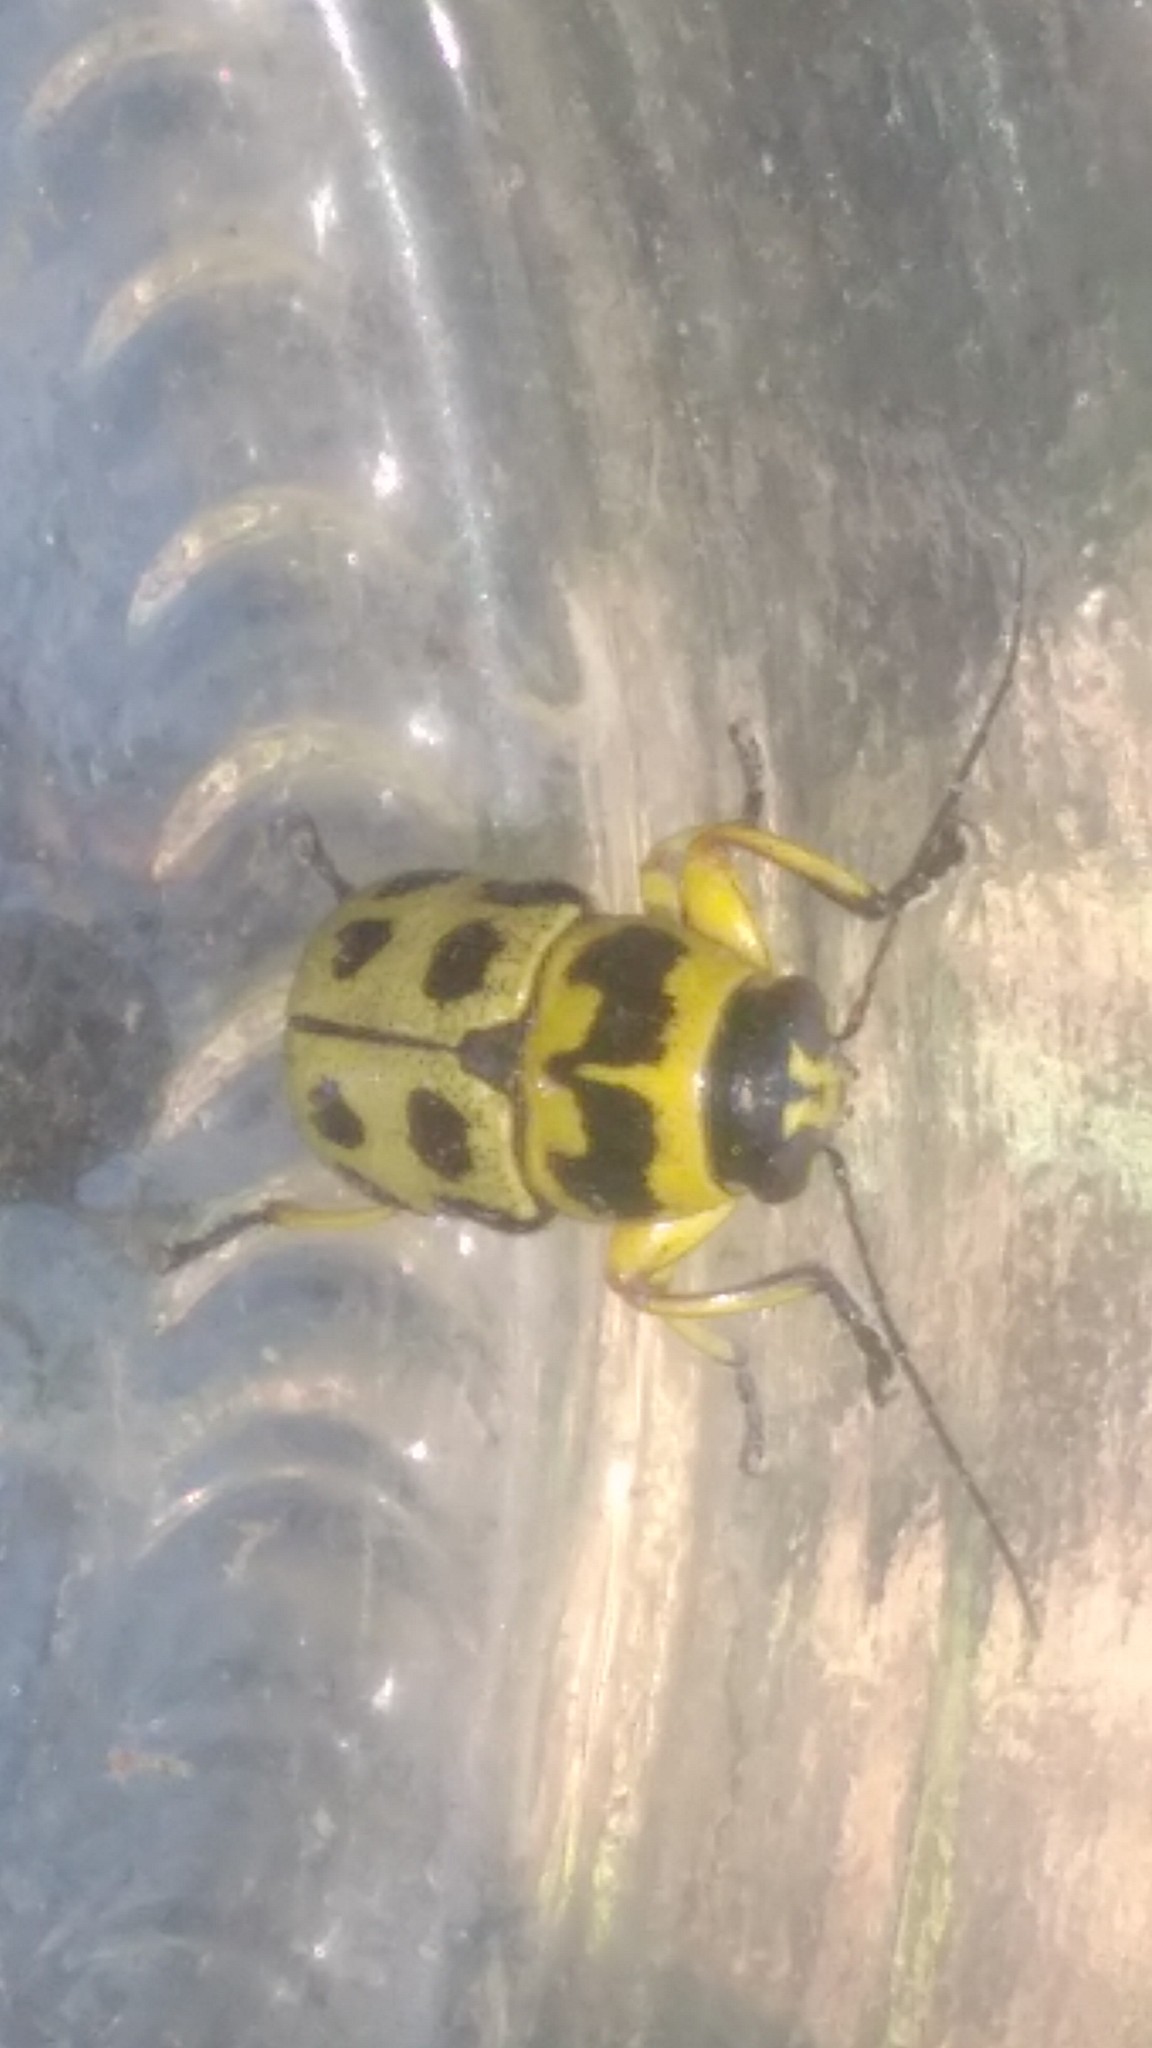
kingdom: Animalia
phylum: Arthropoda
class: Insecta
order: Coleoptera
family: Chrysomelidae
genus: Metallactus
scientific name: Metallactus pollens
